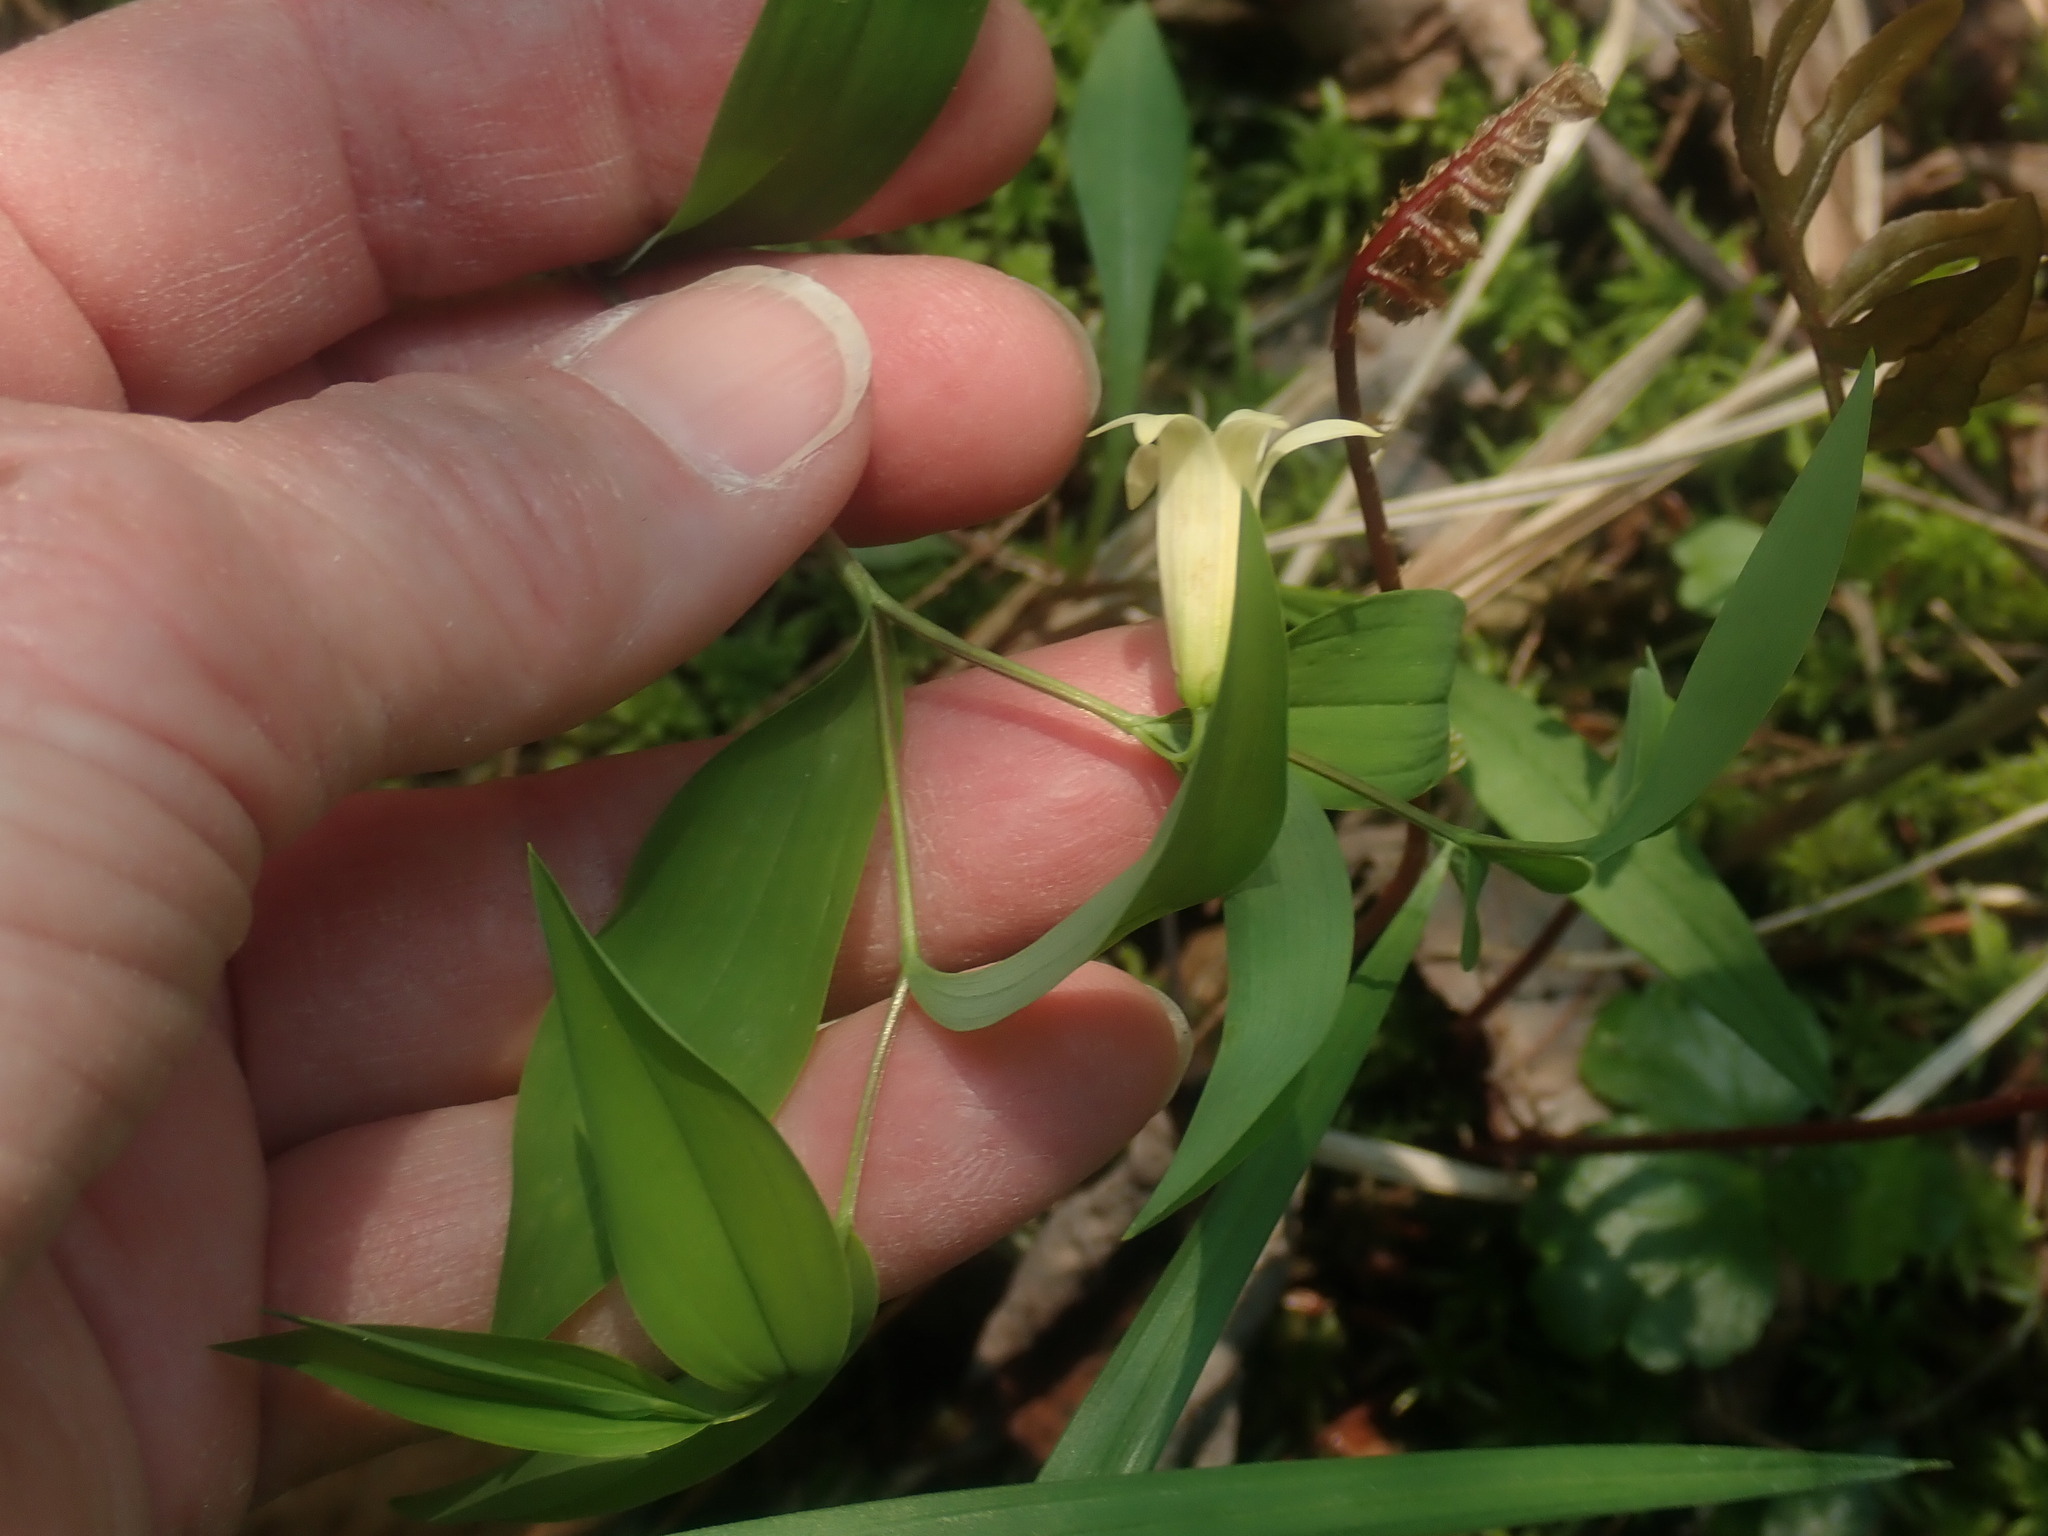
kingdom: Plantae
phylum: Tracheophyta
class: Liliopsida
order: Liliales
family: Colchicaceae
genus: Uvularia
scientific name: Uvularia sessilifolia
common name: Straw-lily
